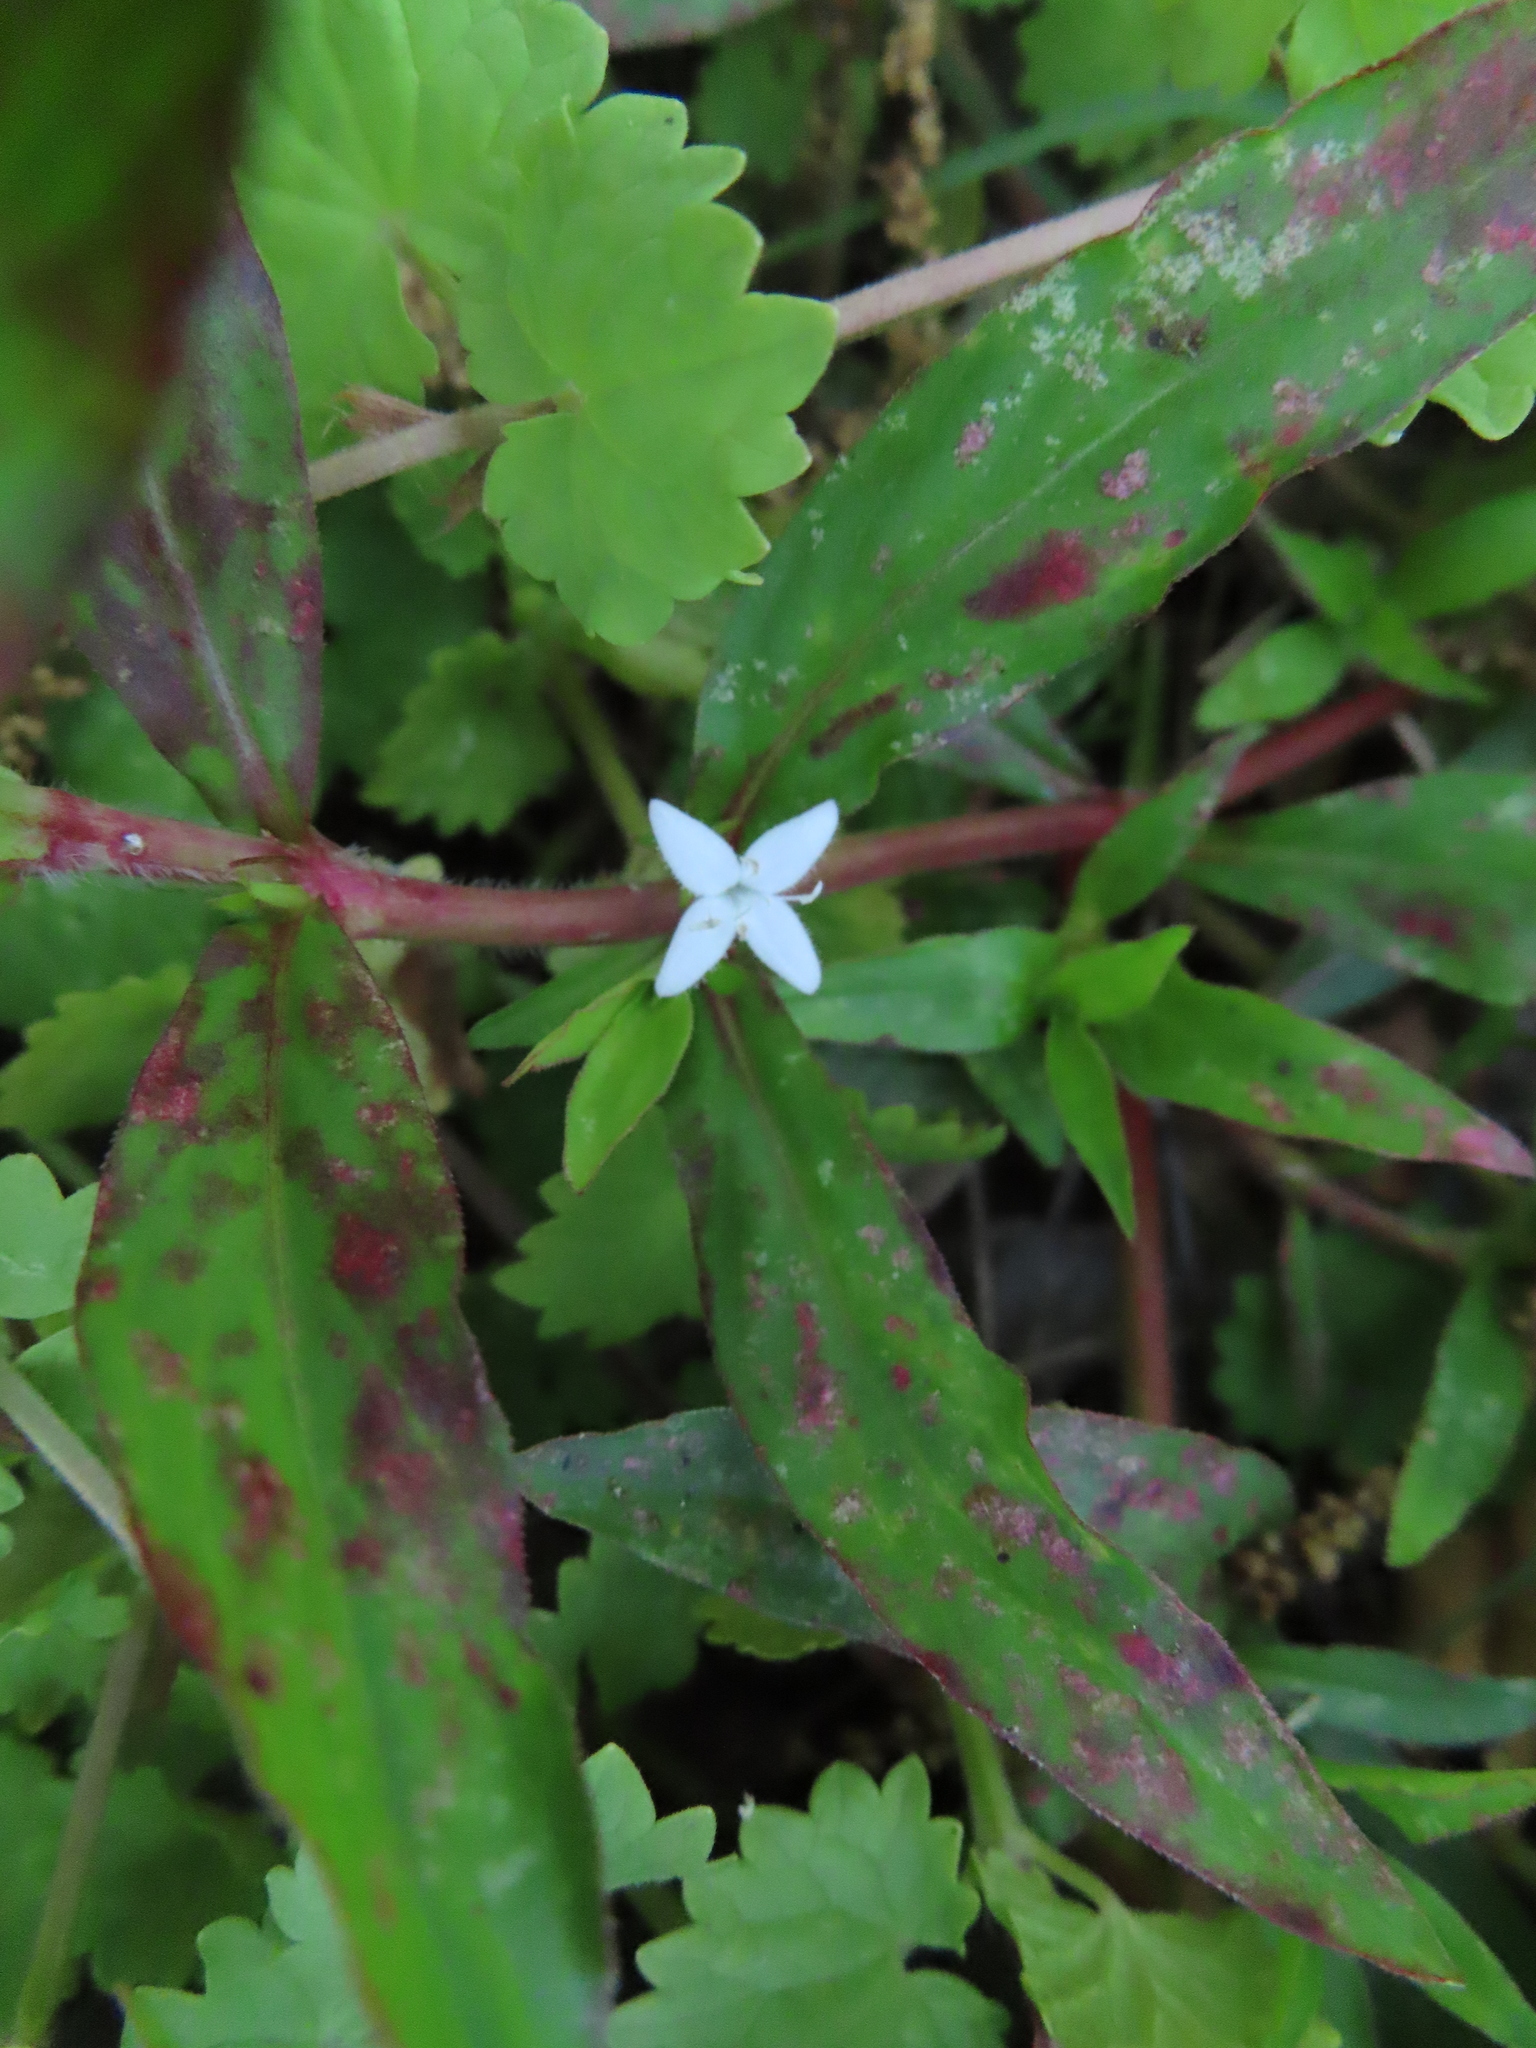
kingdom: Plantae
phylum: Tracheophyta
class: Magnoliopsida
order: Gentianales
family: Rubiaceae
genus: Diodia
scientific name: Diodia virginiana
